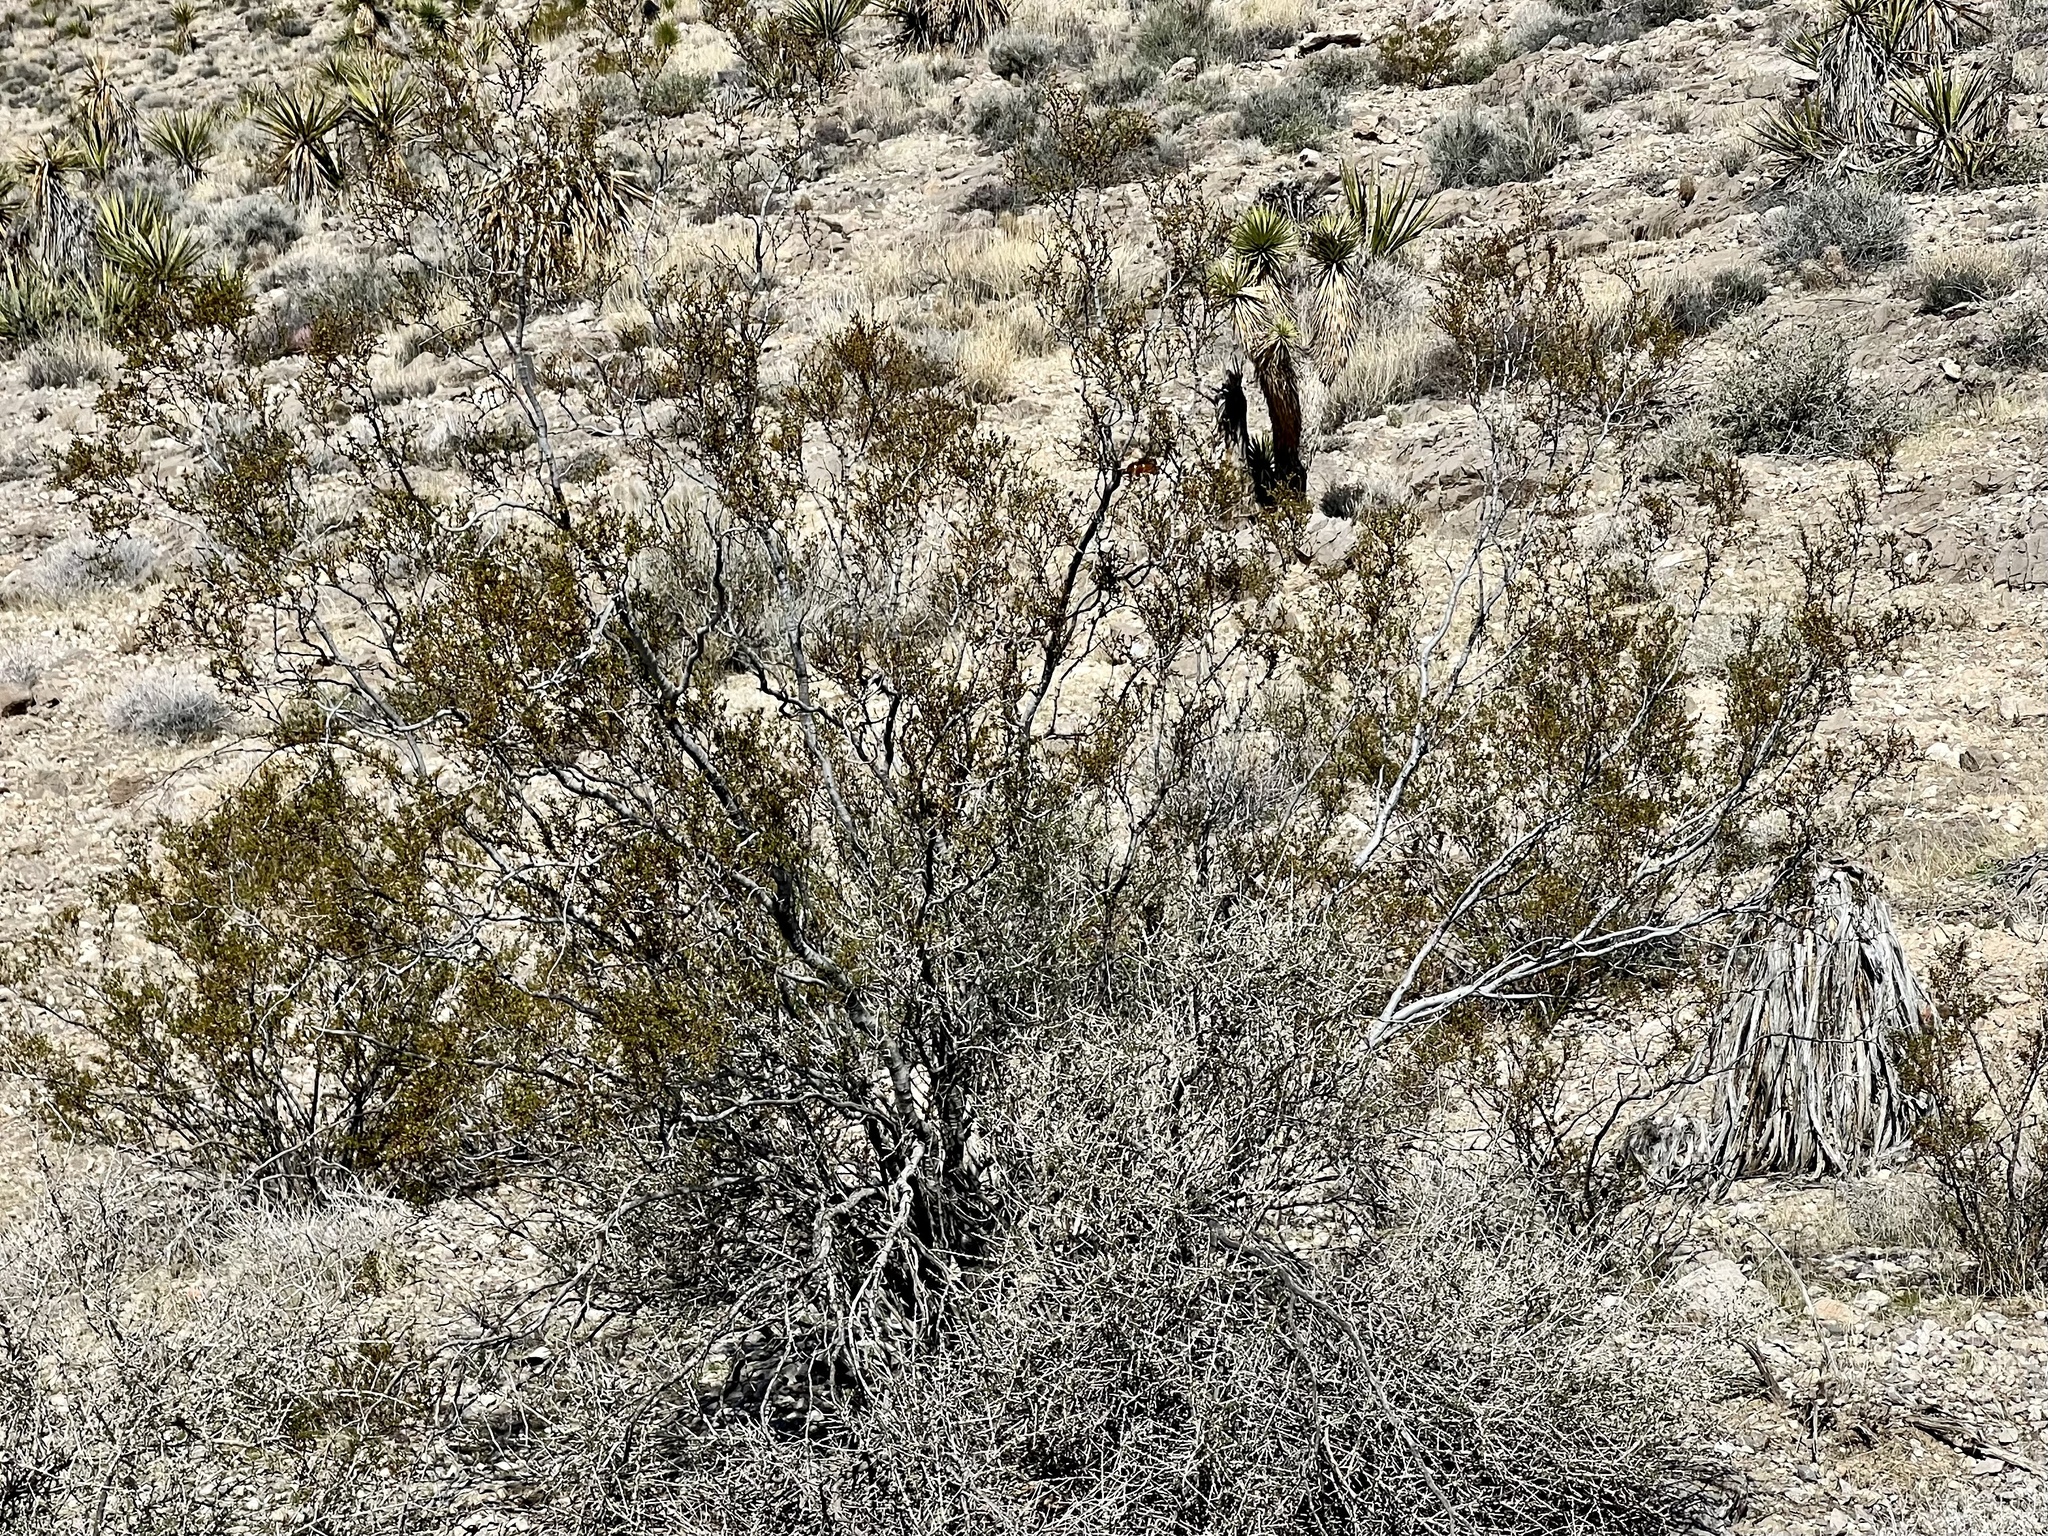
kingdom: Plantae
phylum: Tracheophyta
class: Magnoliopsida
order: Zygophyllales
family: Zygophyllaceae
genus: Larrea
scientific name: Larrea tridentata
